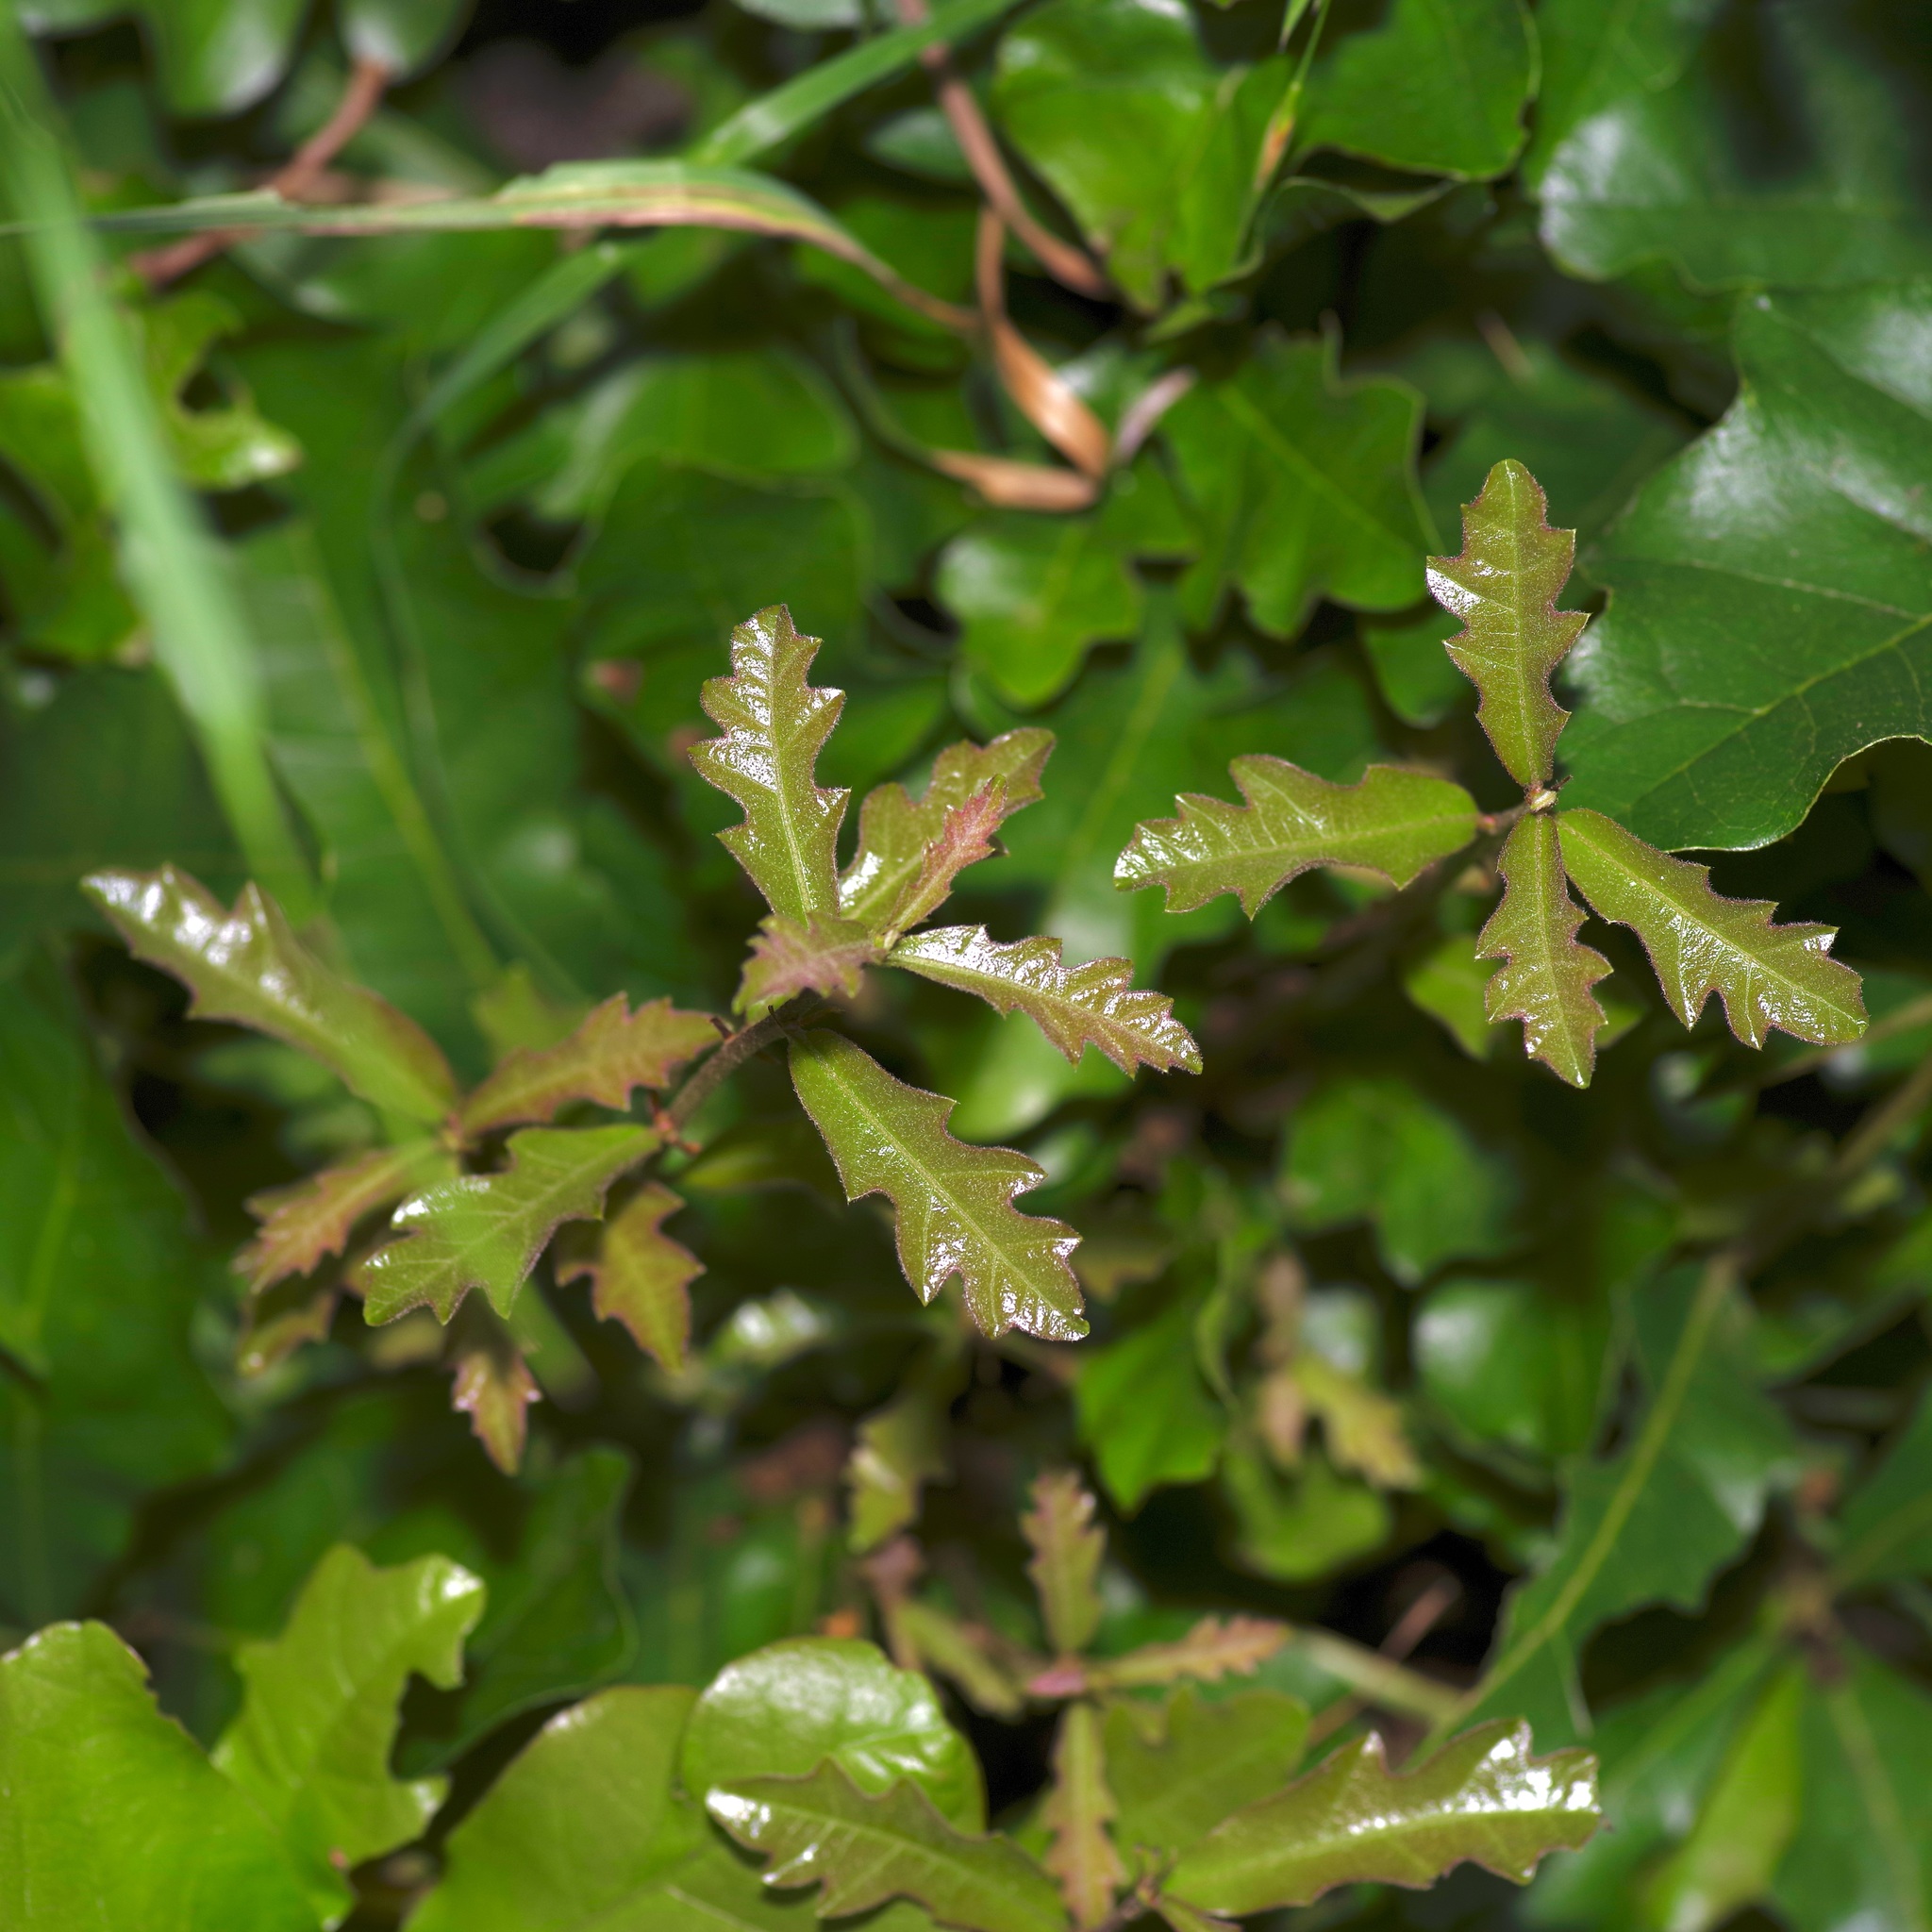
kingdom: Plantae
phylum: Tracheophyta
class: Magnoliopsida
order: Fagales
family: Fagaceae
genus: Quercus
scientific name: Quercus sinuata
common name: Durand oak
